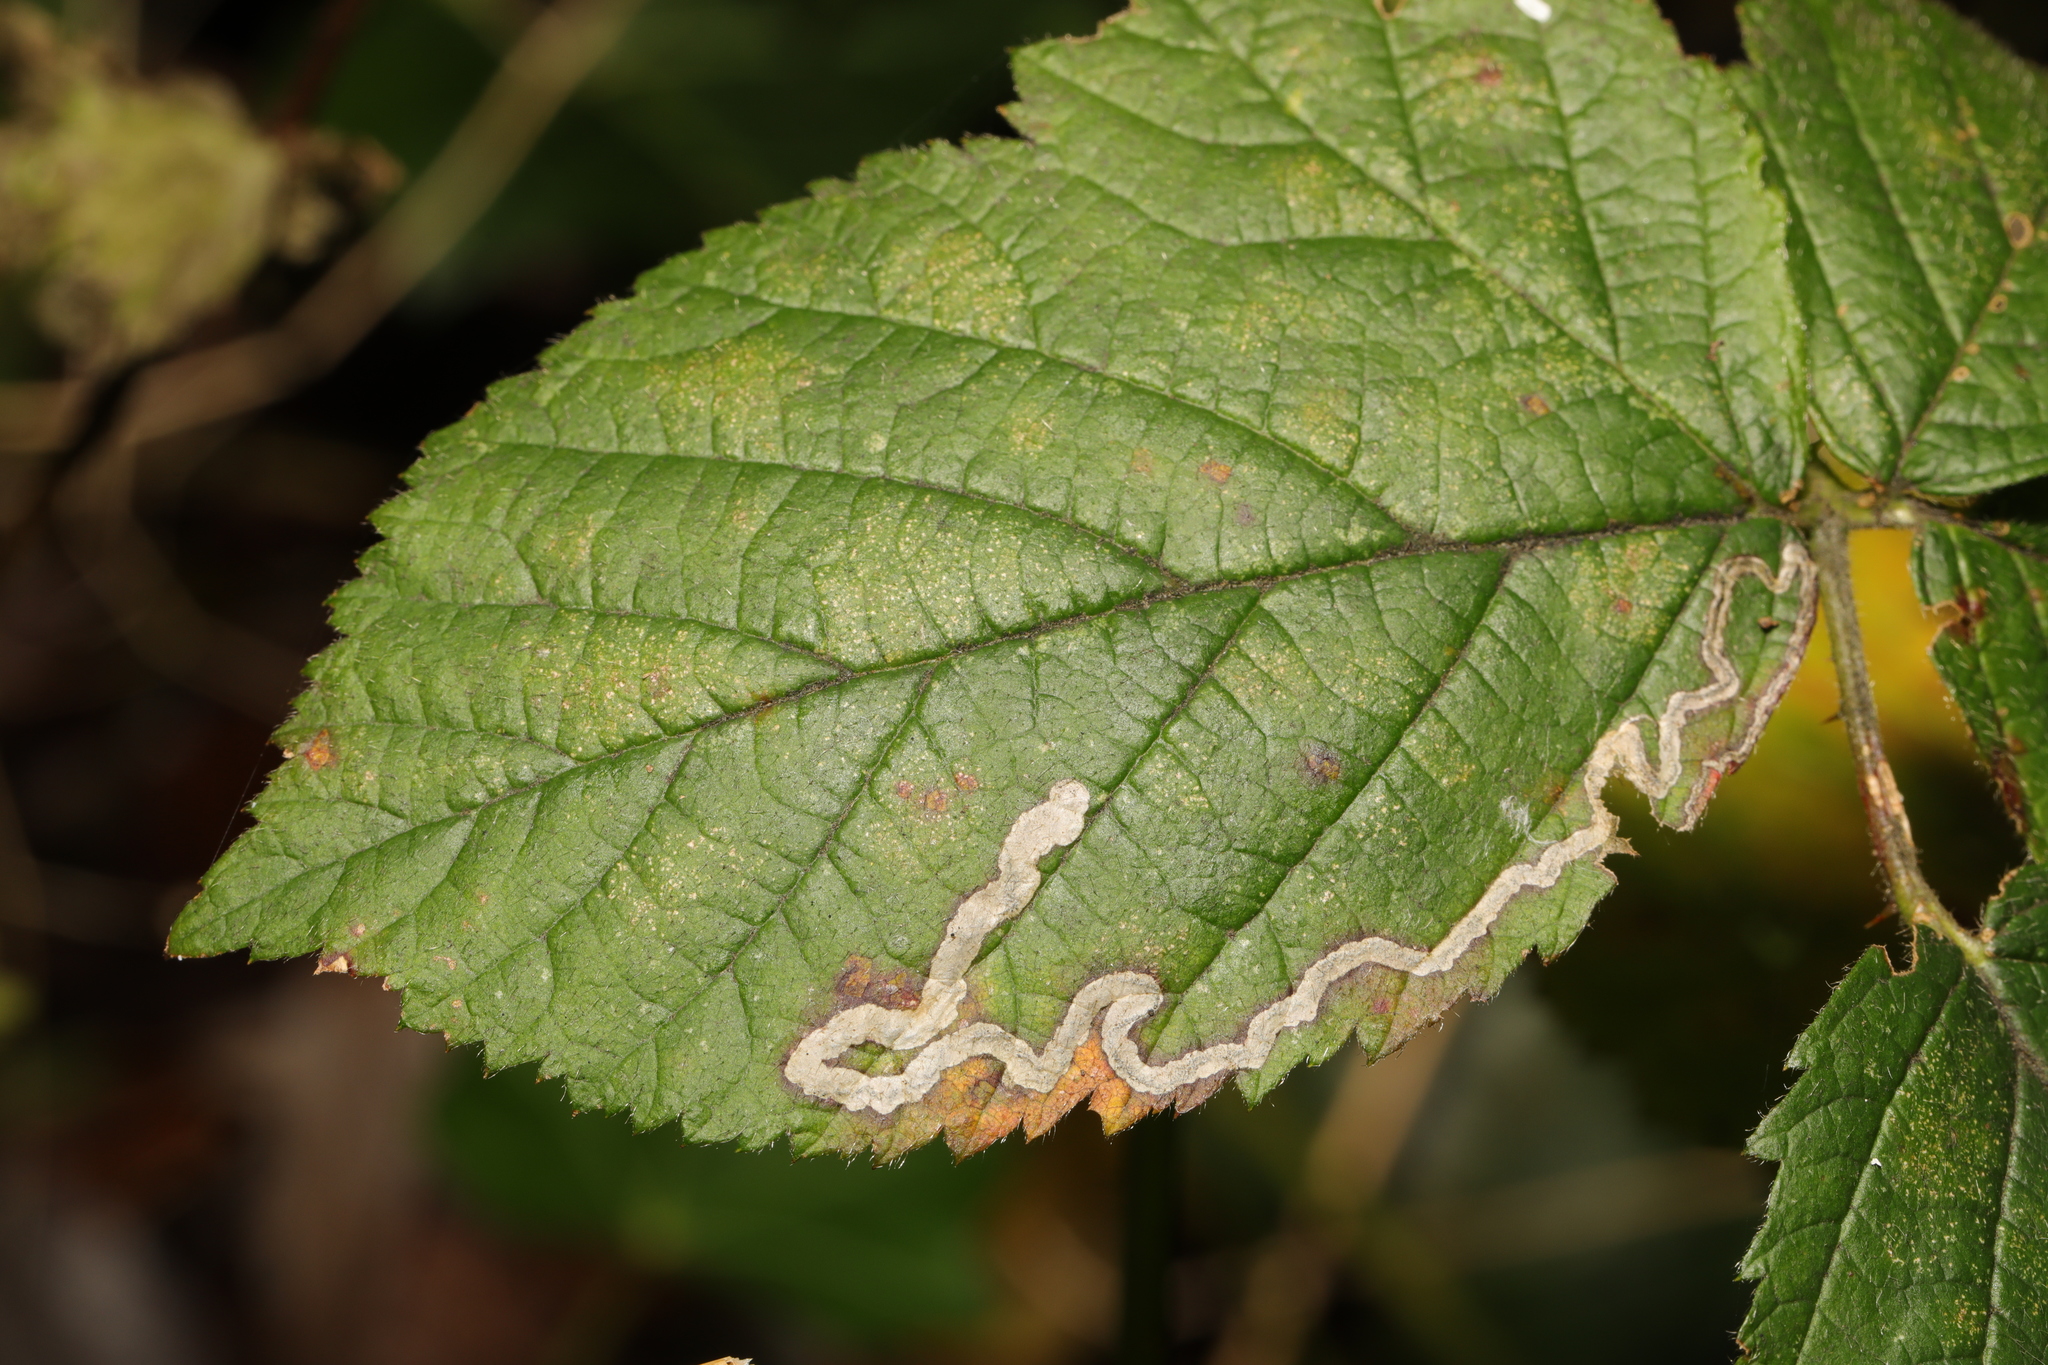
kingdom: Animalia
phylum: Arthropoda
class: Insecta
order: Lepidoptera
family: Nepticulidae
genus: Stigmella
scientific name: Stigmella aurella
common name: Golden pigmy
